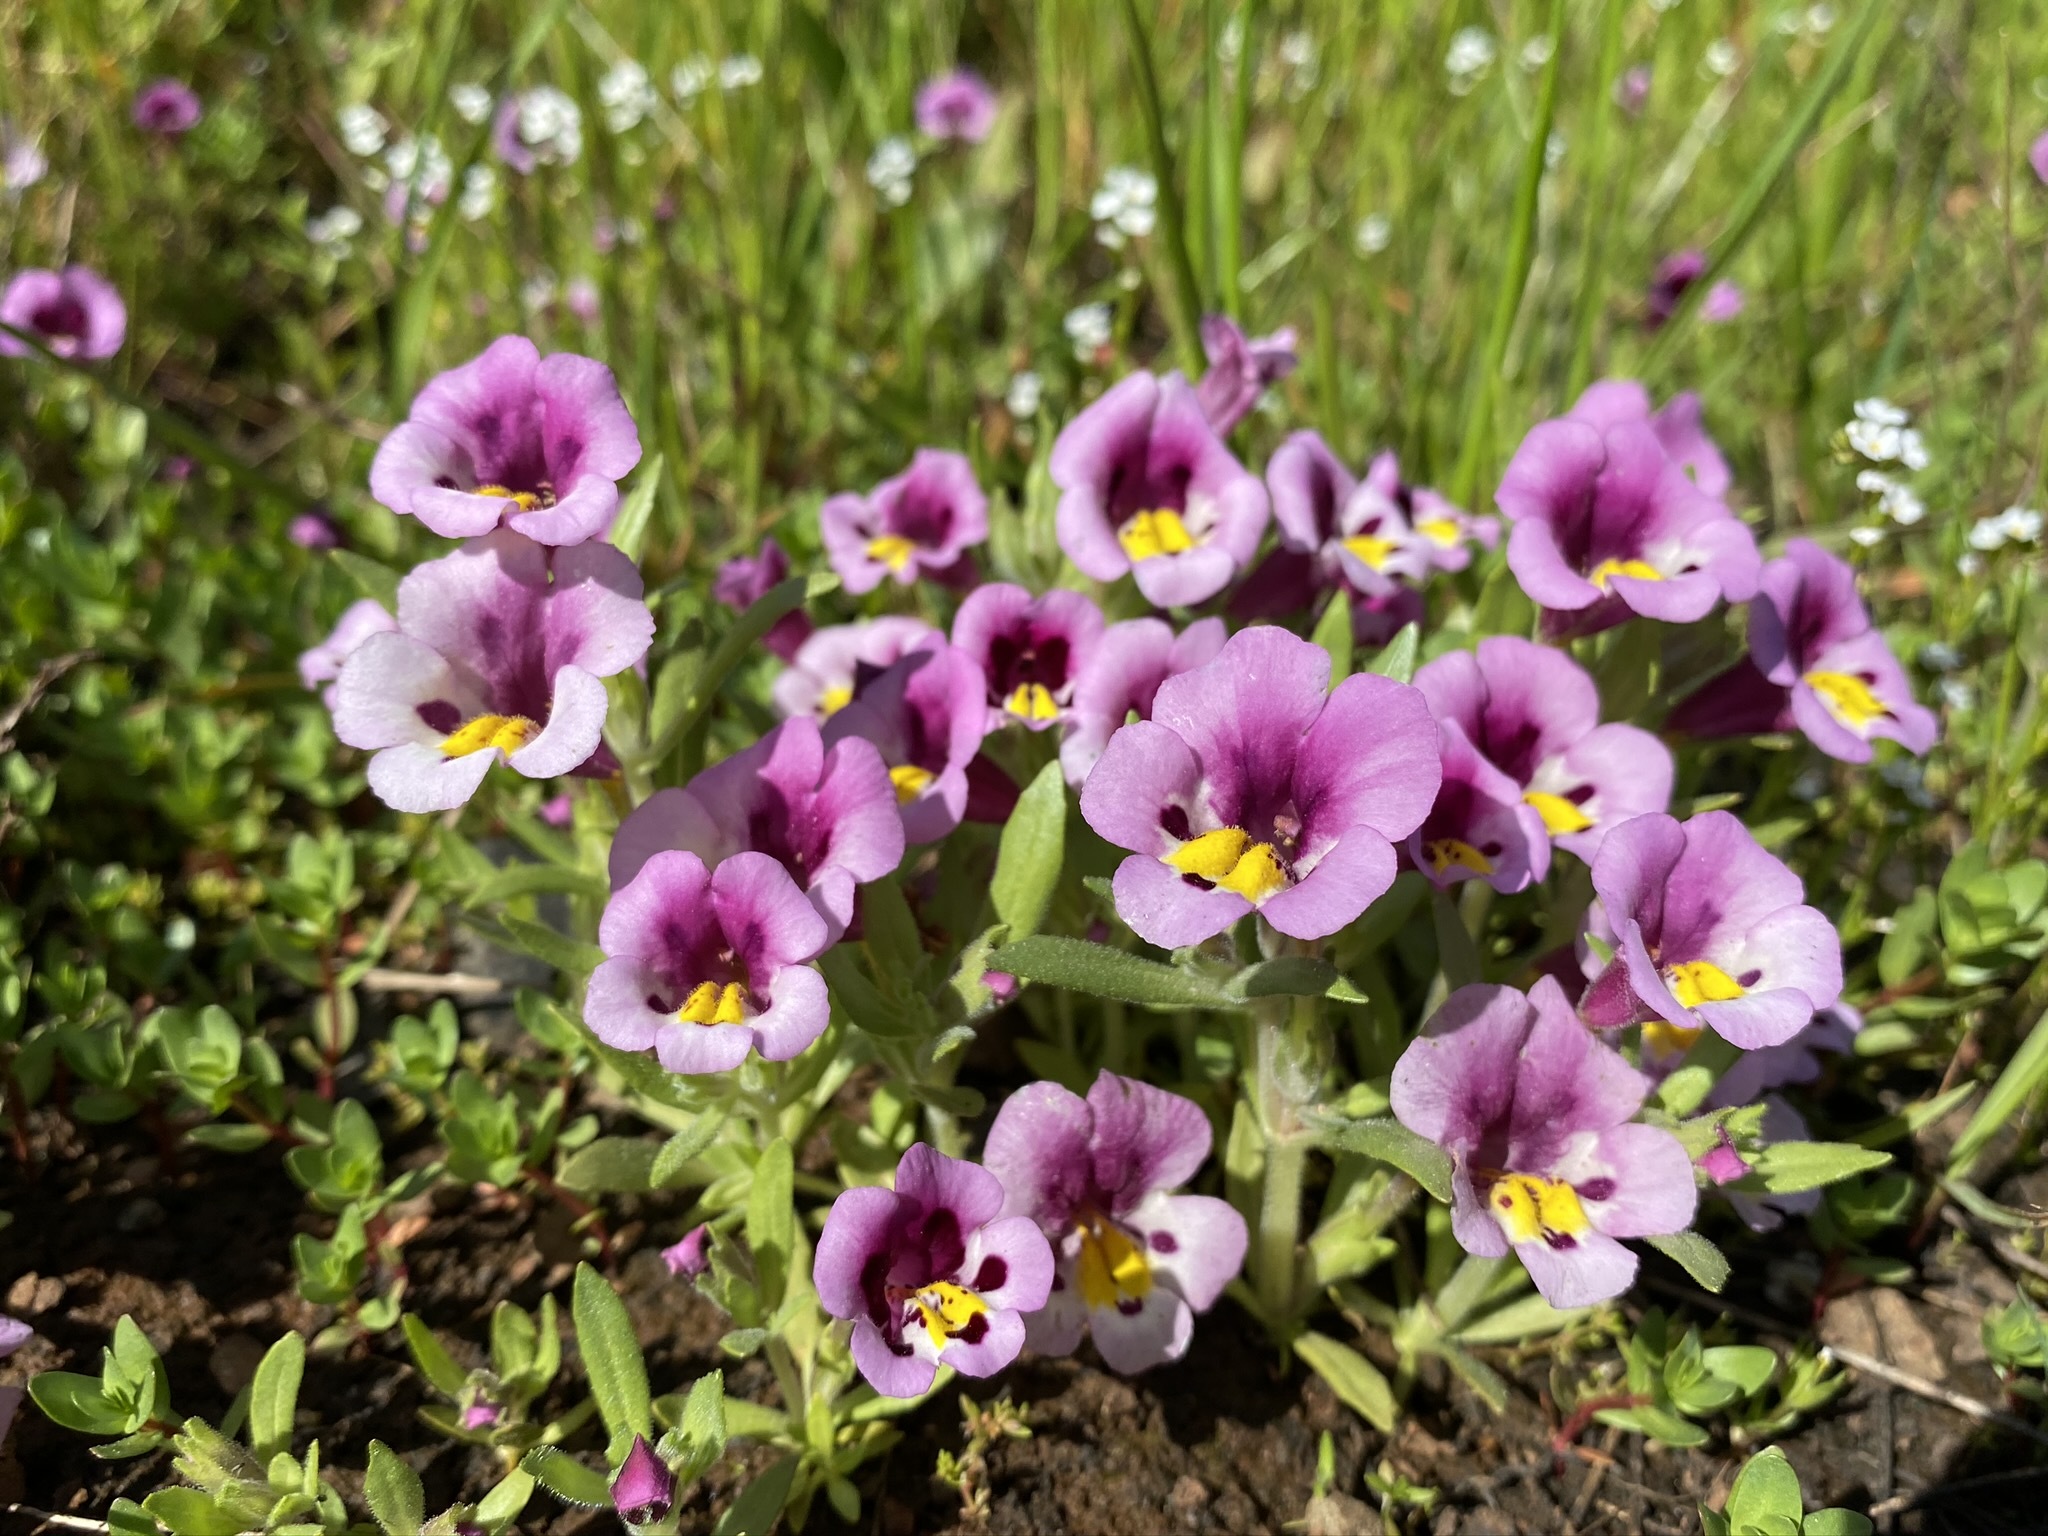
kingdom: Plantae
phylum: Tracheophyta
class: Magnoliopsida
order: Lamiales
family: Phrymaceae
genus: Diplacus
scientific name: Diplacus tricolor
